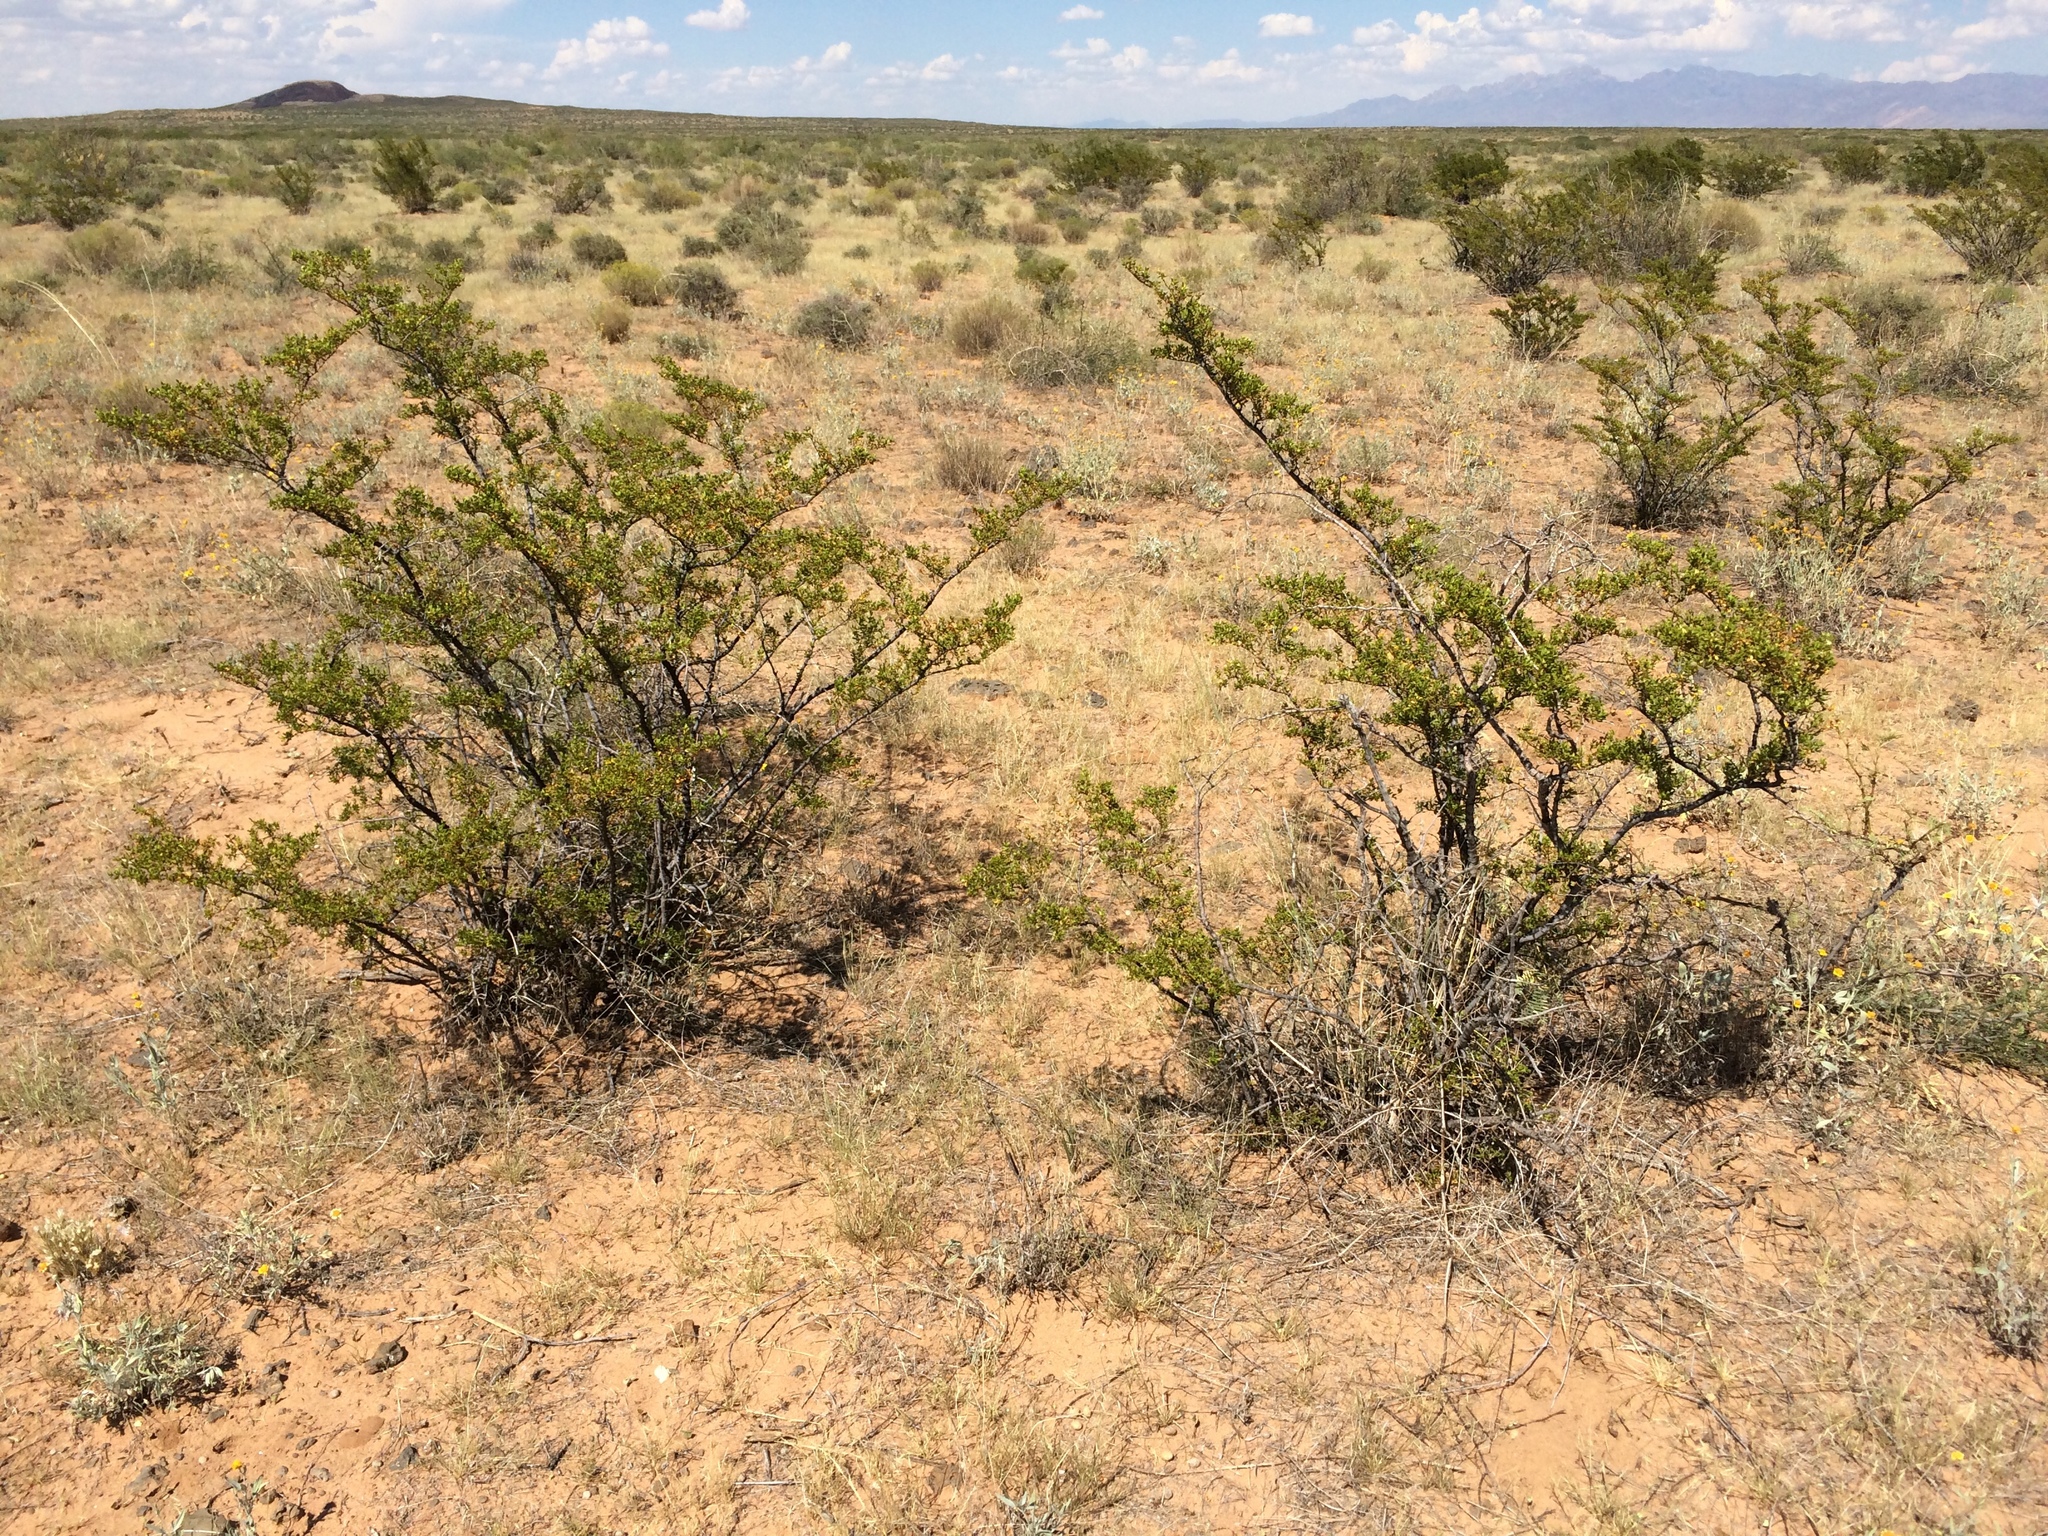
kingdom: Plantae
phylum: Tracheophyta
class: Magnoliopsida
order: Zygophyllales
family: Zygophyllaceae
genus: Larrea
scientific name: Larrea tridentata
